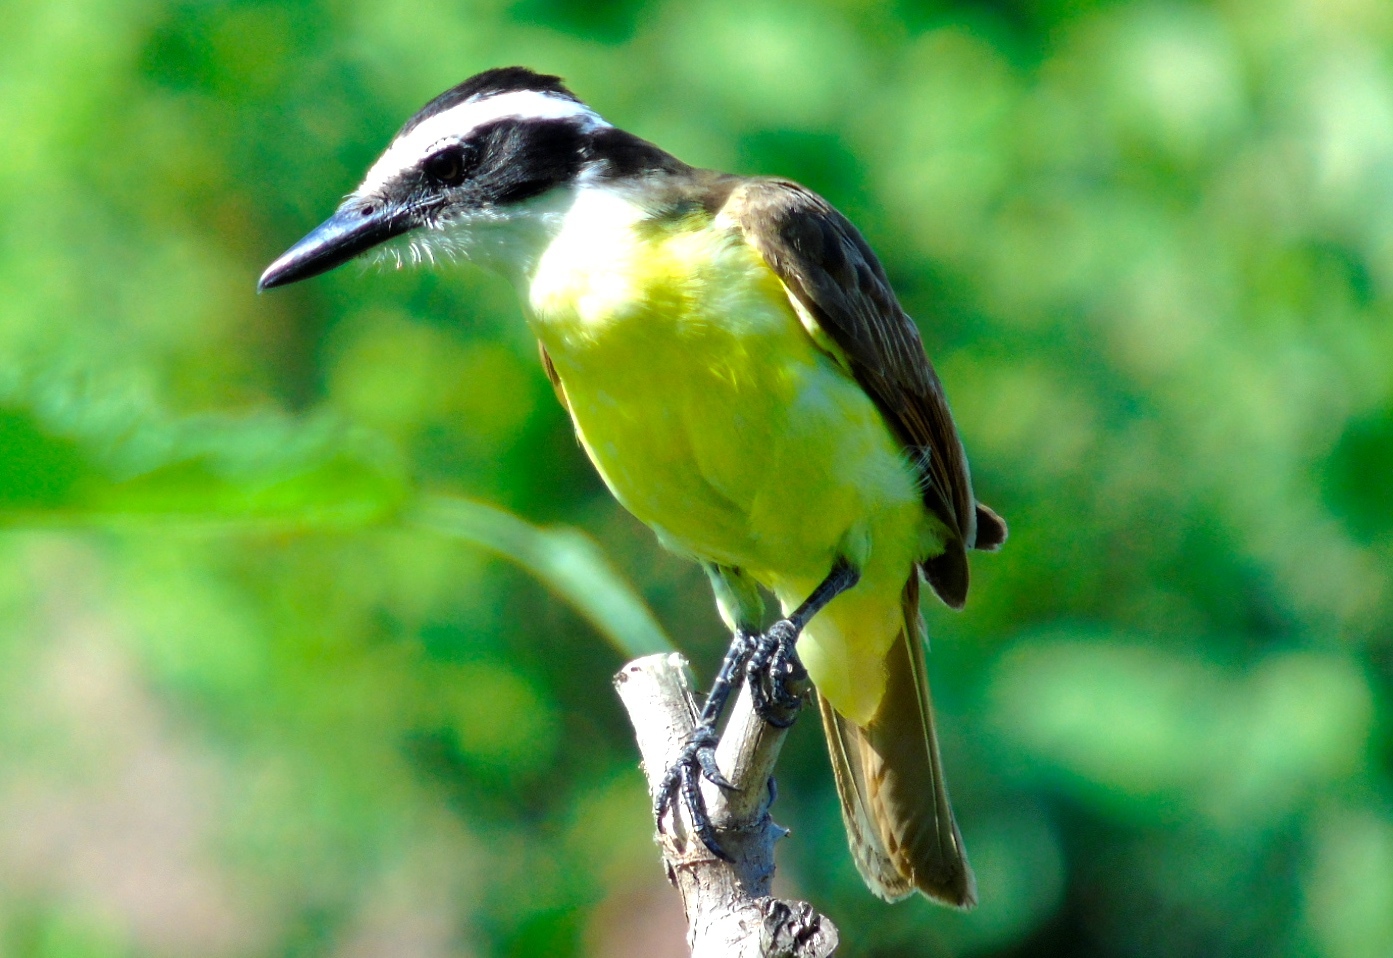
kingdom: Animalia
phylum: Chordata
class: Aves
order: Passeriformes
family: Tyrannidae
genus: Pitangus
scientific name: Pitangus sulphuratus
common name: Great kiskadee
